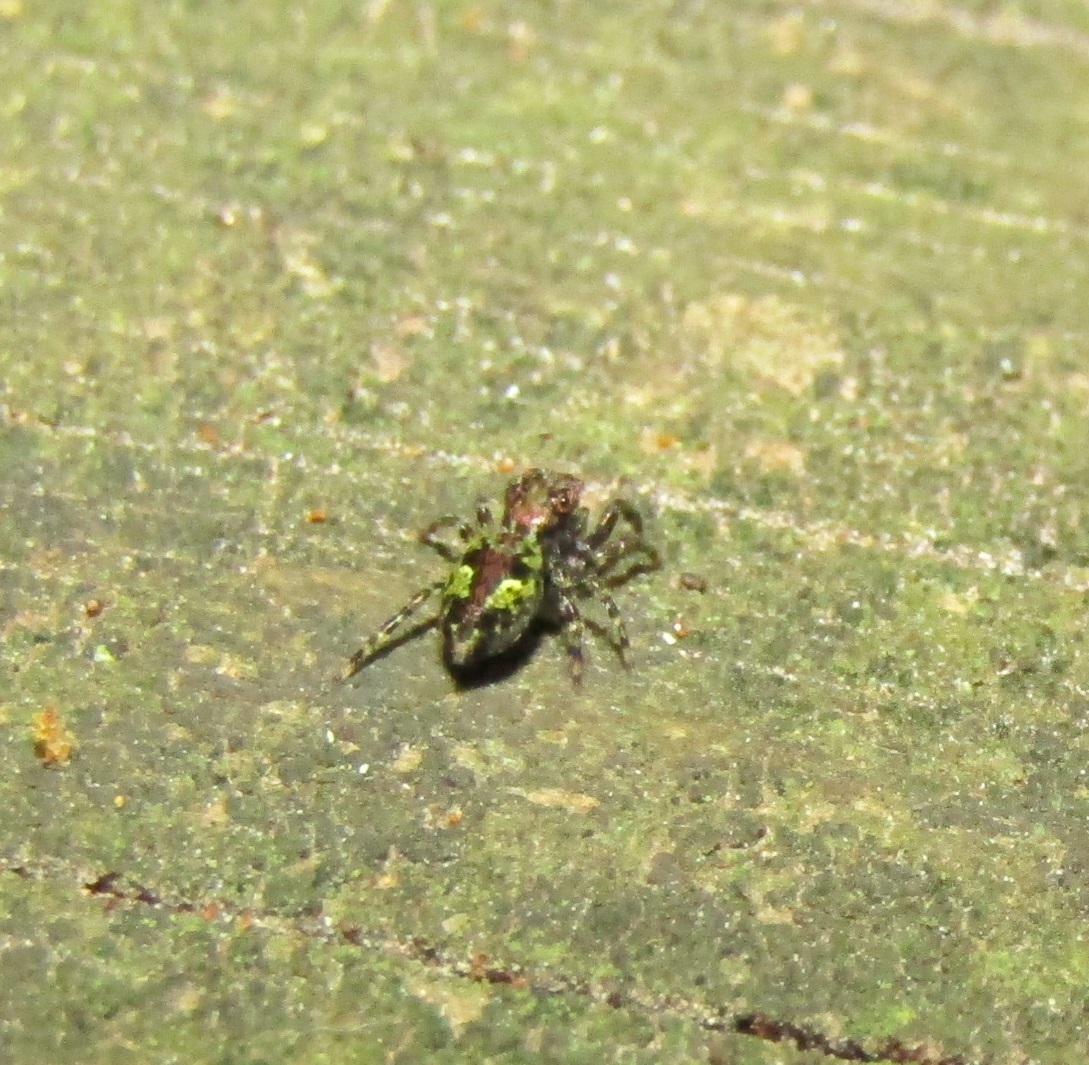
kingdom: Animalia
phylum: Arthropoda
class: Arachnida
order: Araneae
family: Salticidae
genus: Hinewaia
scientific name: Hinewaia embolica
